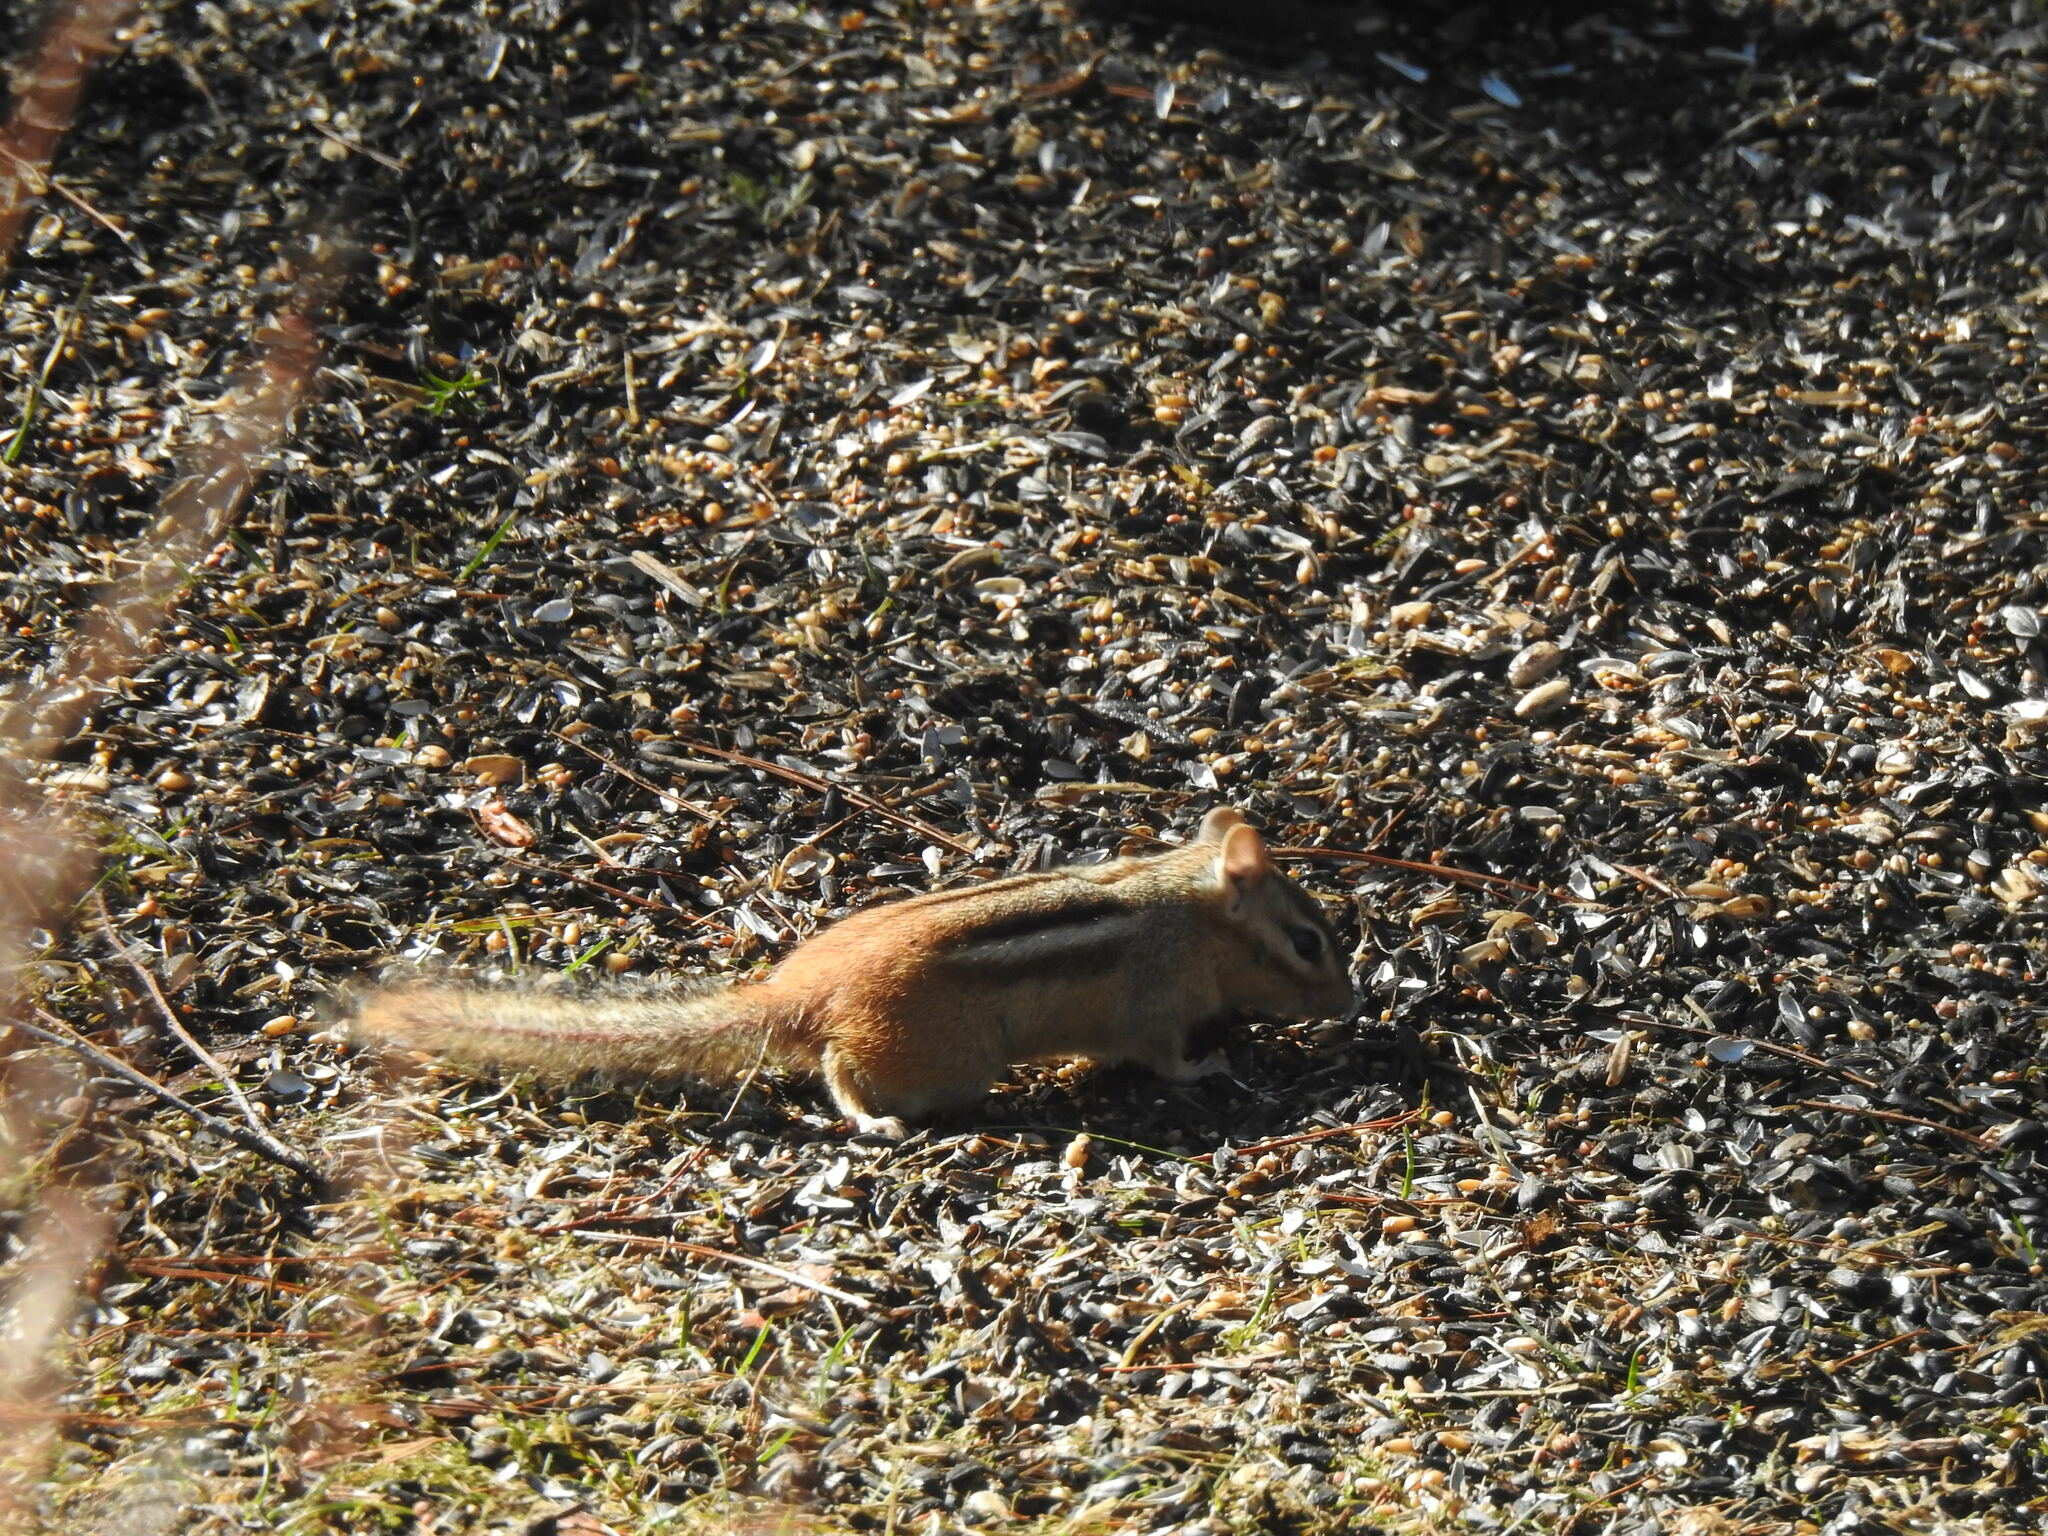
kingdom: Animalia
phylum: Chordata
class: Mammalia
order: Rodentia
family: Sciuridae
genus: Tamias
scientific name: Tamias striatus
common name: Eastern chipmunk
